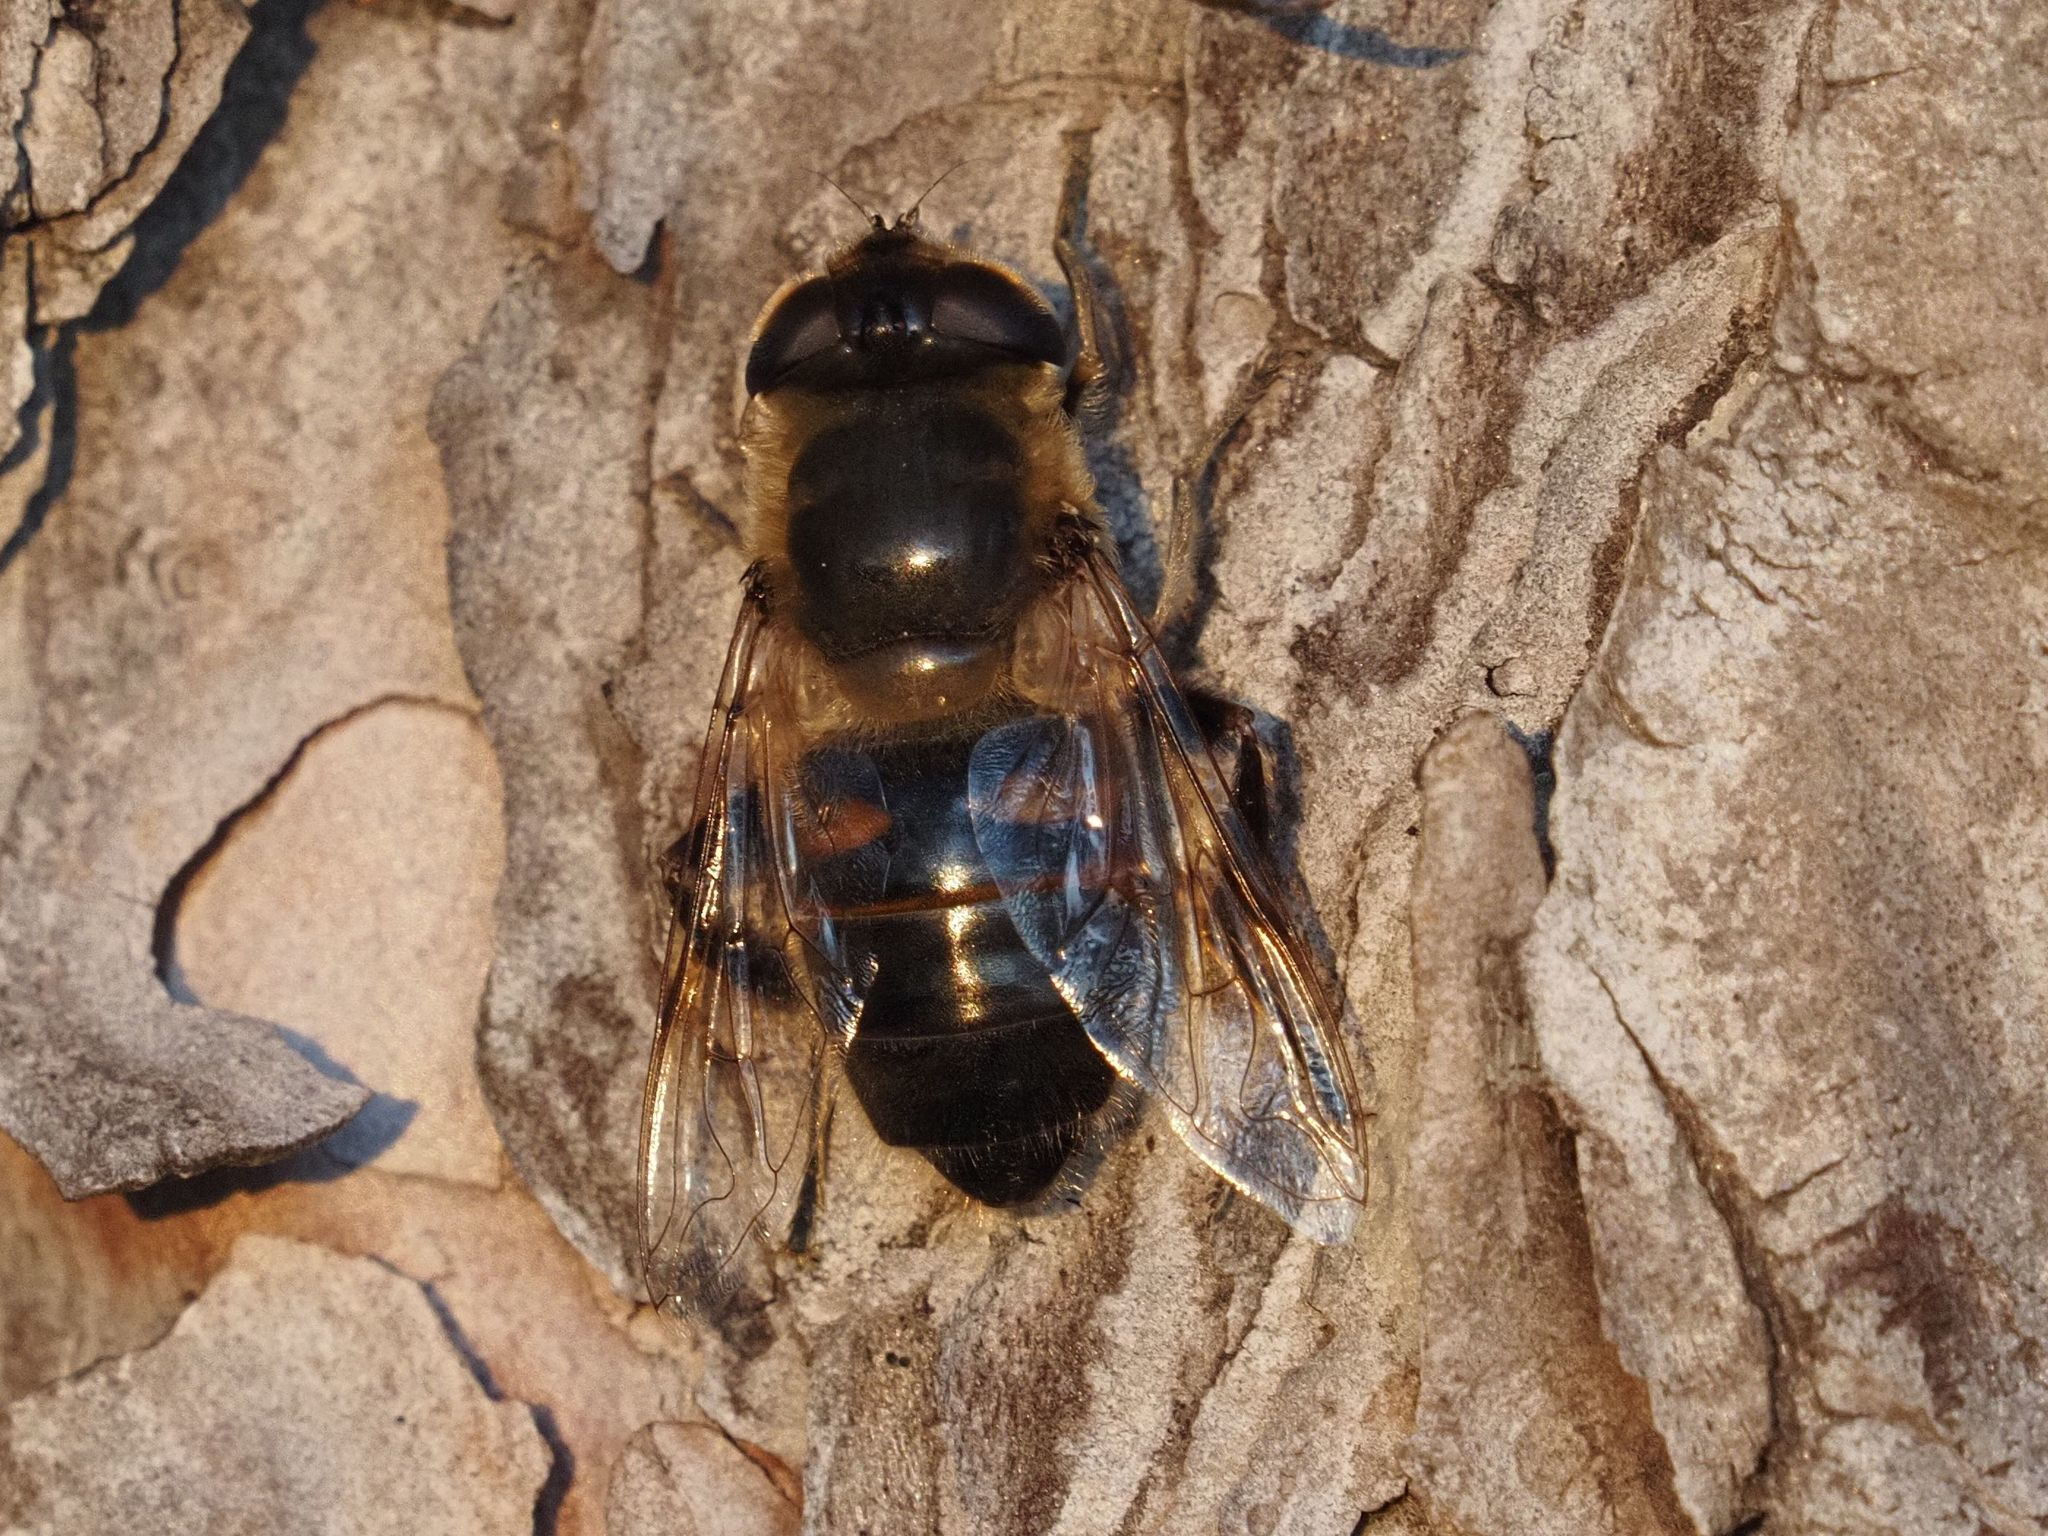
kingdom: Animalia
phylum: Arthropoda
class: Insecta
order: Diptera
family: Syrphidae
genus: Eristalis
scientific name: Eristalis tenax
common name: Drone fly
